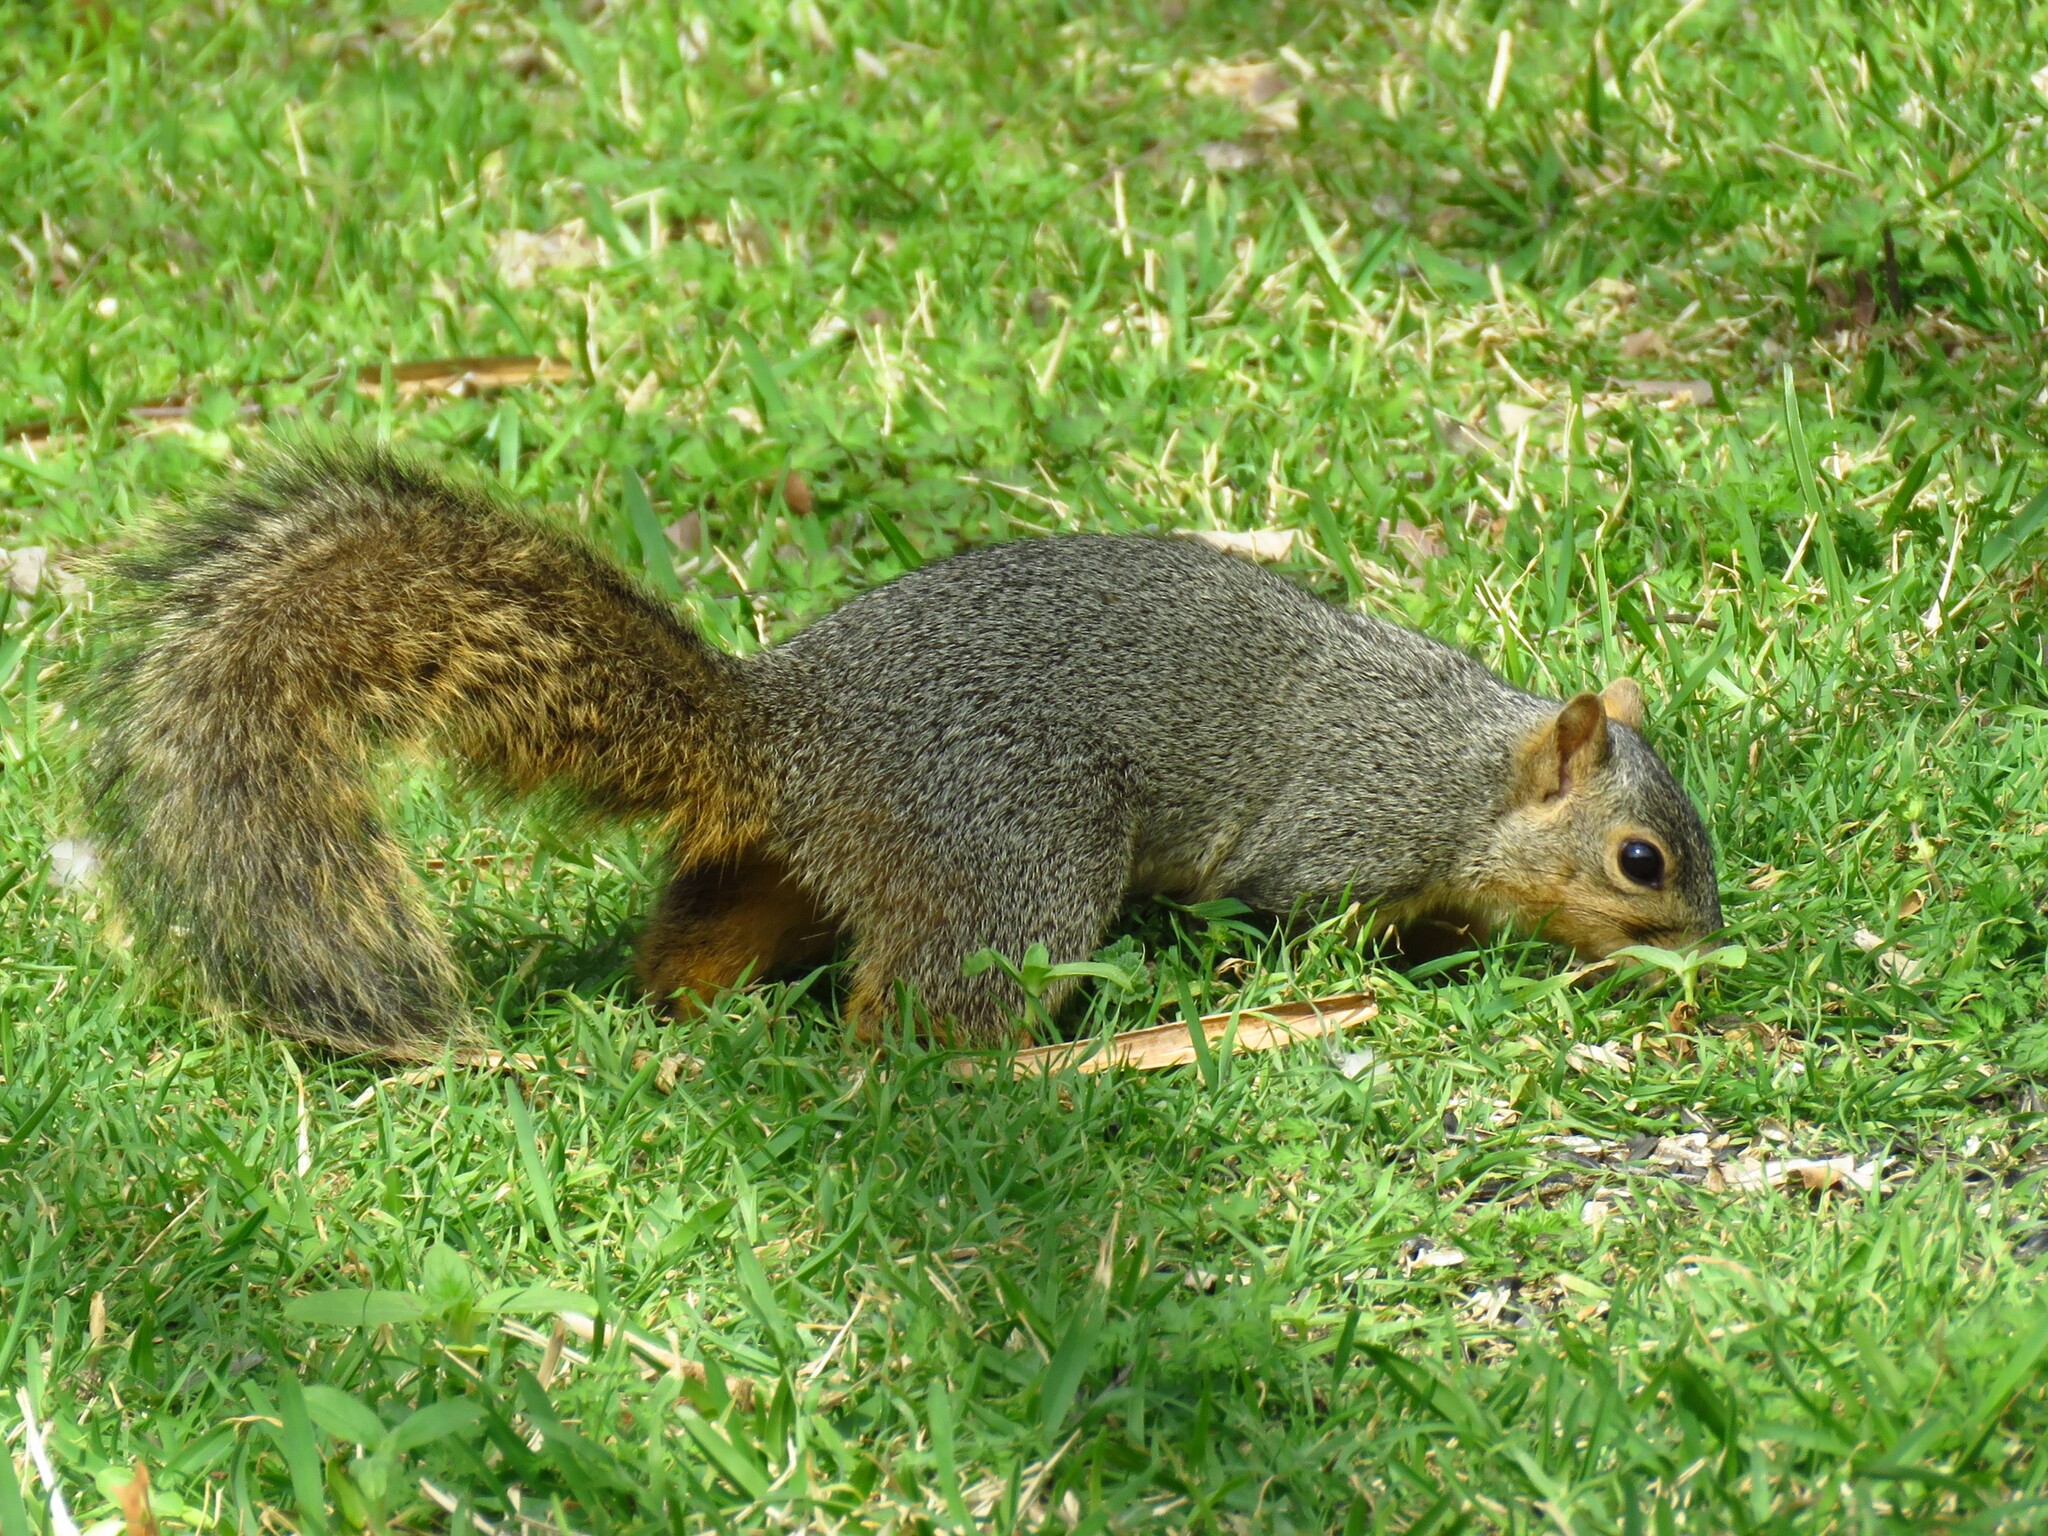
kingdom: Animalia
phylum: Chordata
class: Mammalia
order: Rodentia
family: Sciuridae
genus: Sciurus
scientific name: Sciurus niger
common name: Fox squirrel
